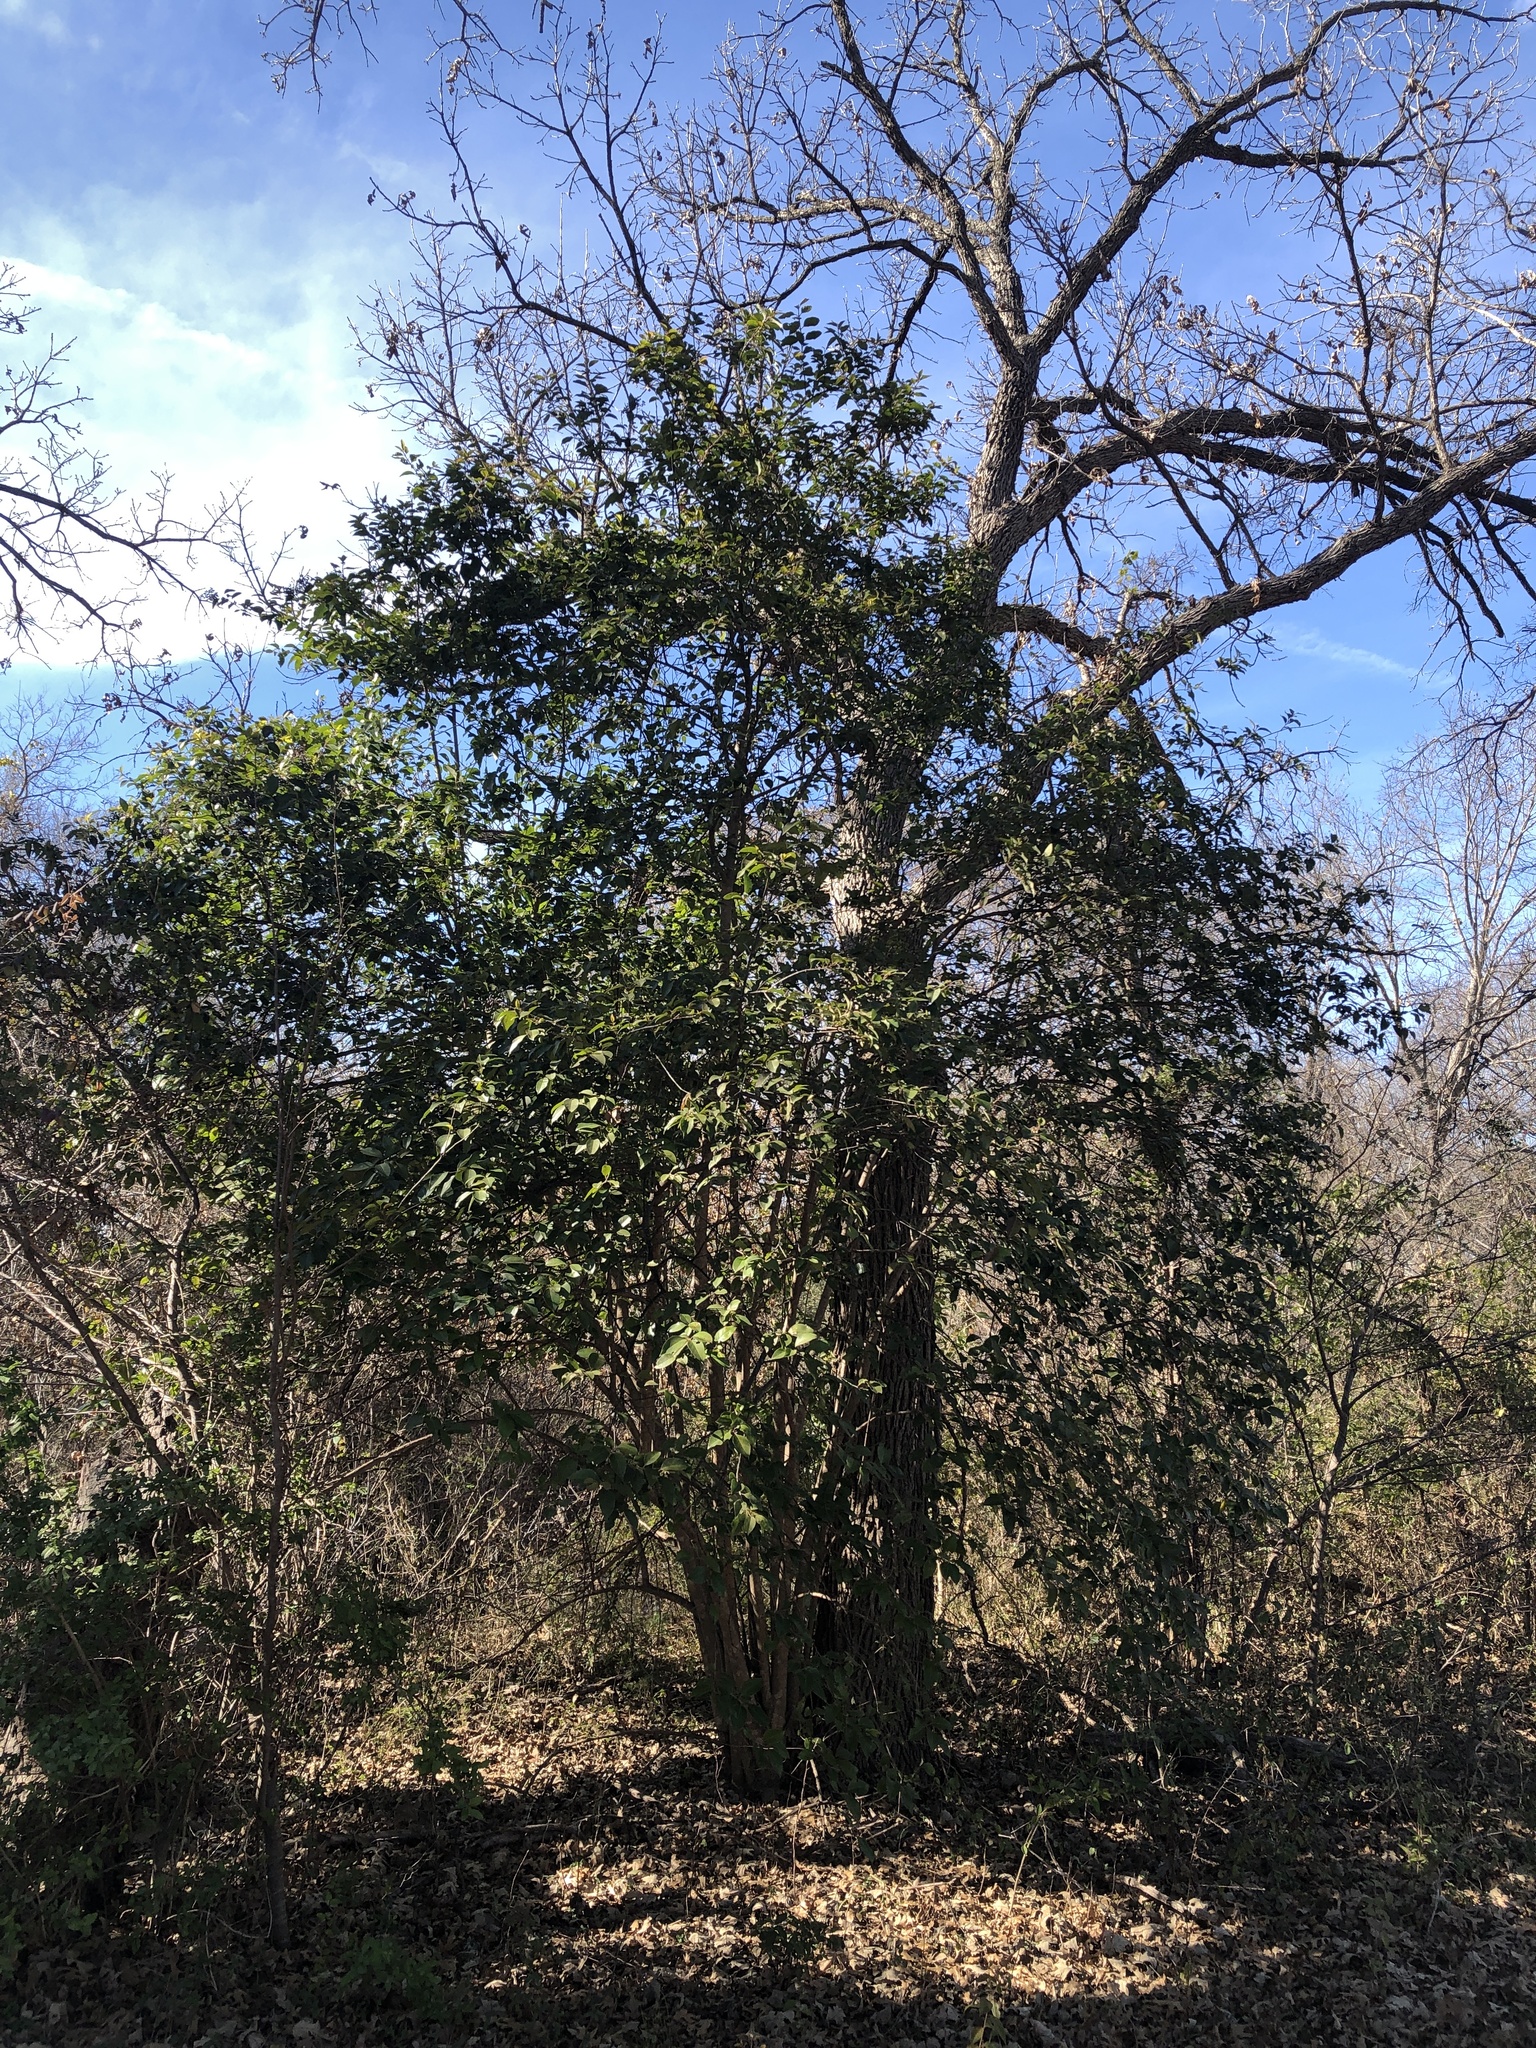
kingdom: Plantae
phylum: Tracheophyta
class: Magnoliopsida
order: Lamiales
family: Oleaceae
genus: Ligustrum
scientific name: Ligustrum lucidum
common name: Glossy privet
